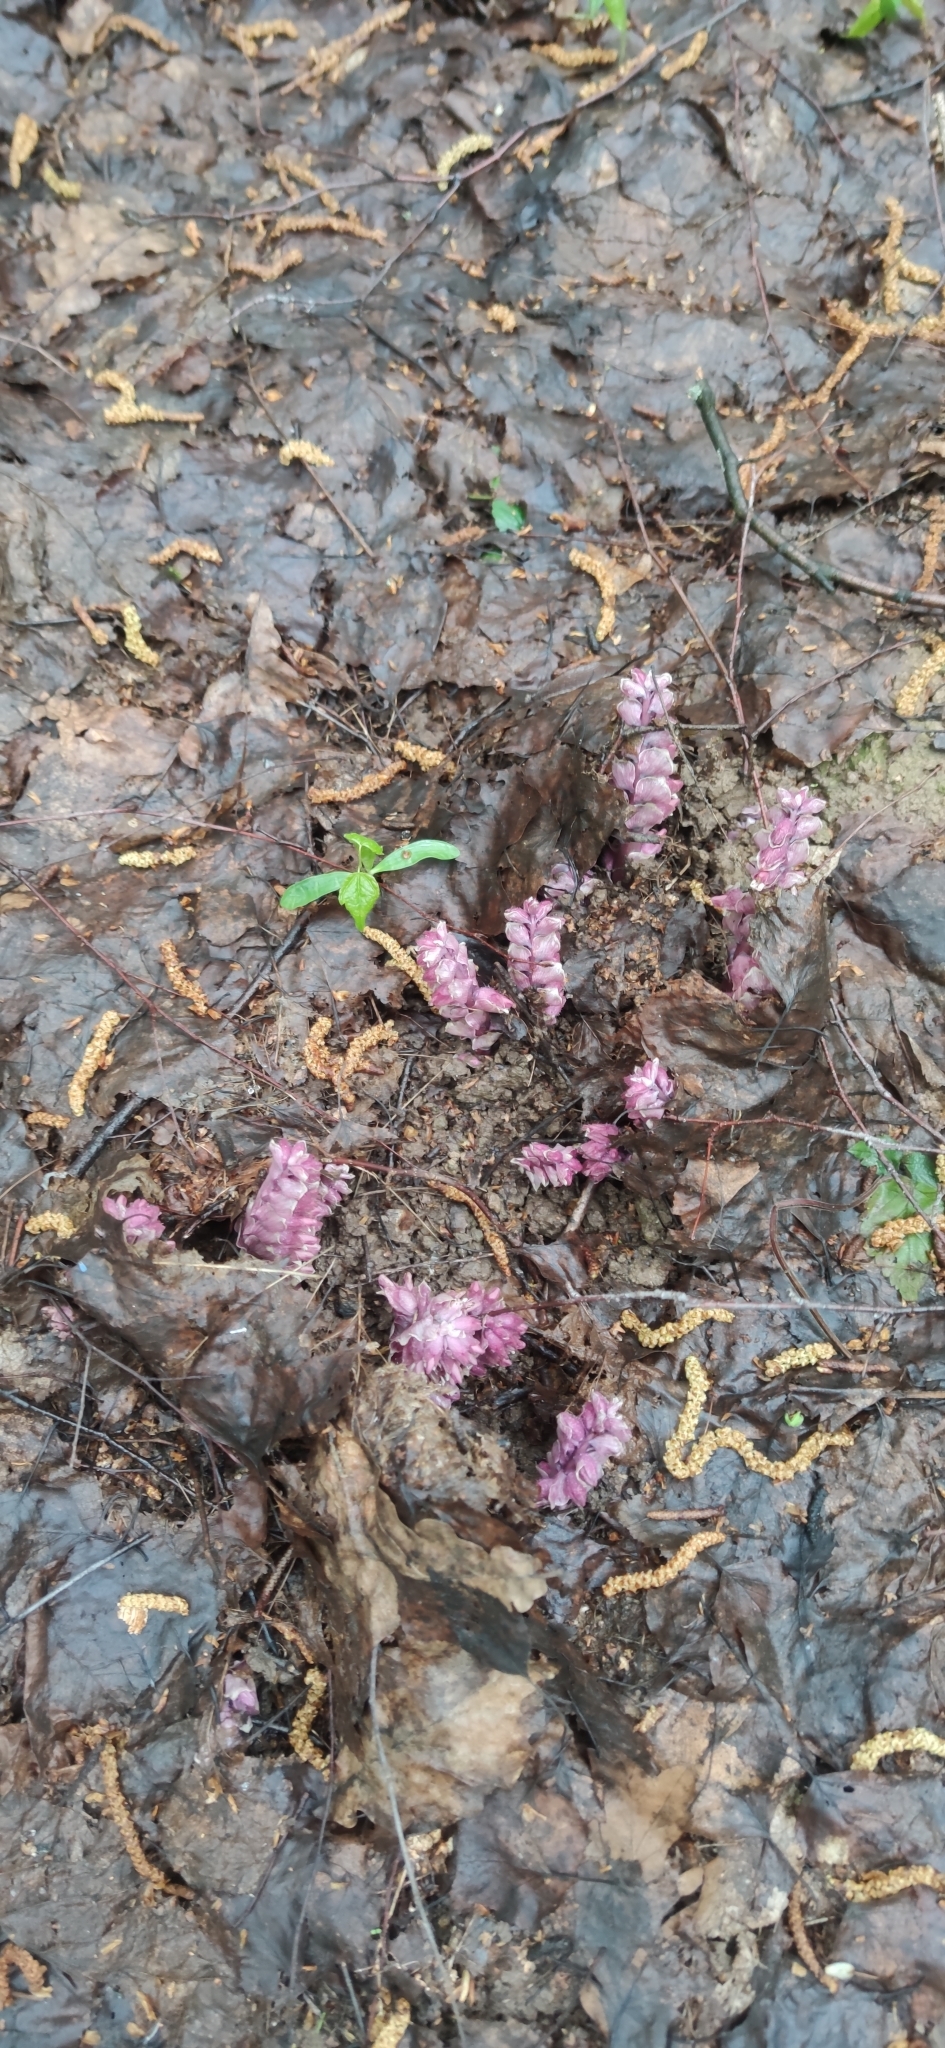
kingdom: Plantae
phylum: Tracheophyta
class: Magnoliopsida
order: Lamiales
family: Orobanchaceae
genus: Lathraea
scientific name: Lathraea squamaria
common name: Toothwort
